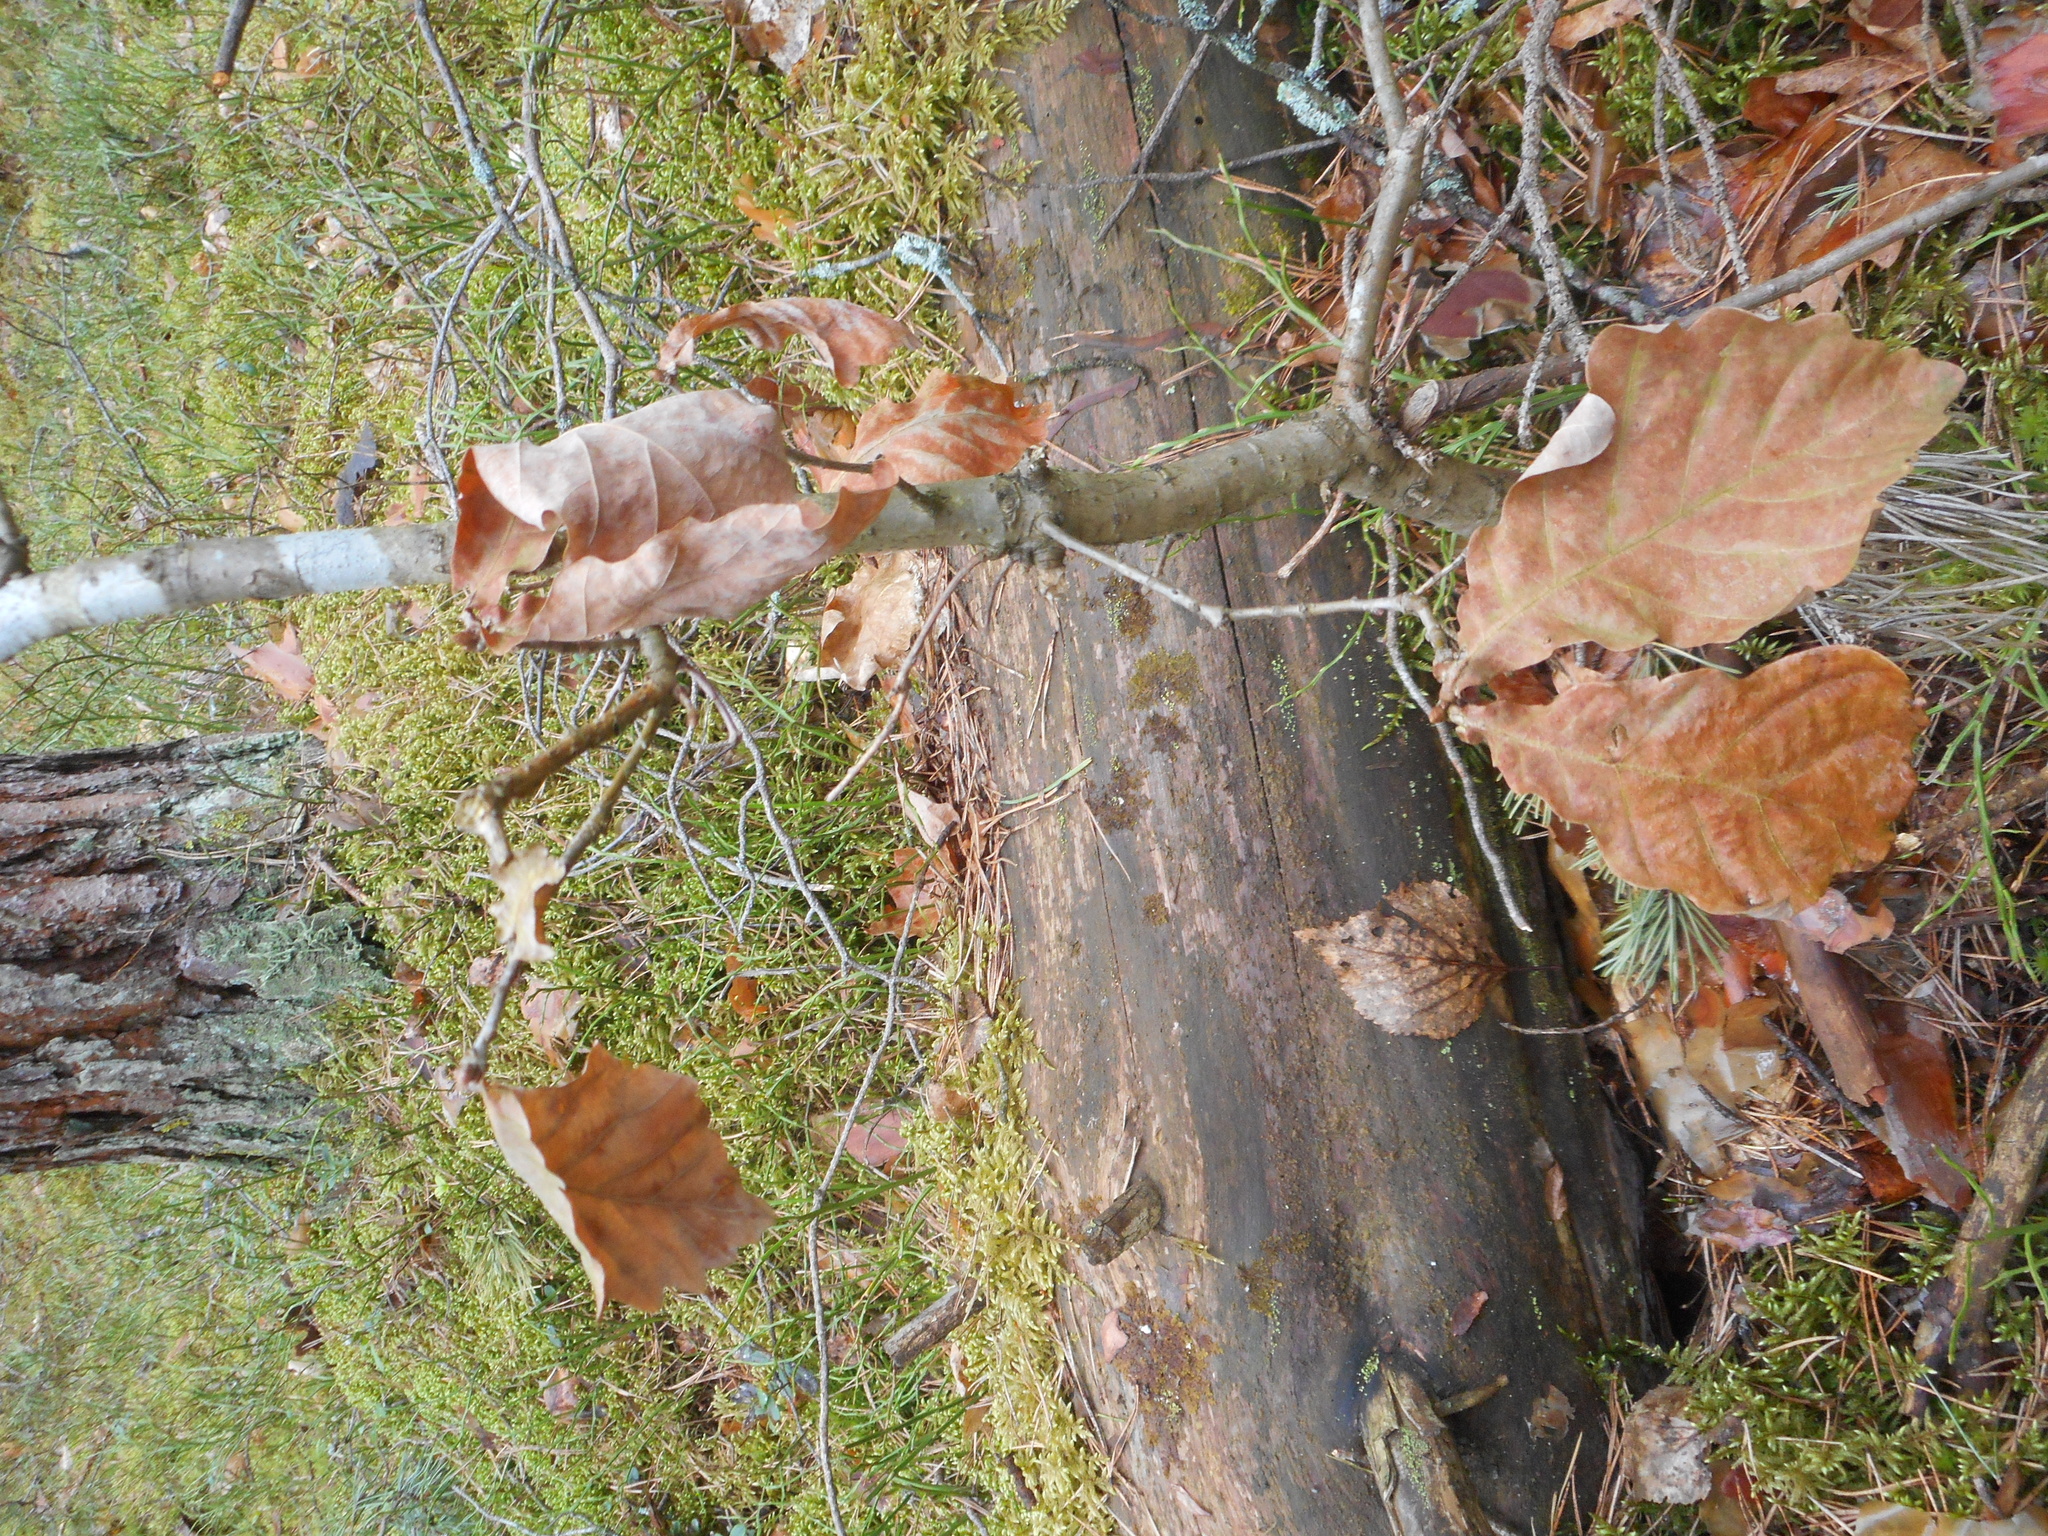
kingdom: Plantae
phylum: Tracheophyta
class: Magnoliopsida
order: Fagales
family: Fagaceae
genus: Quercus
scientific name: Quercus robur
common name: Pedunculate oak
